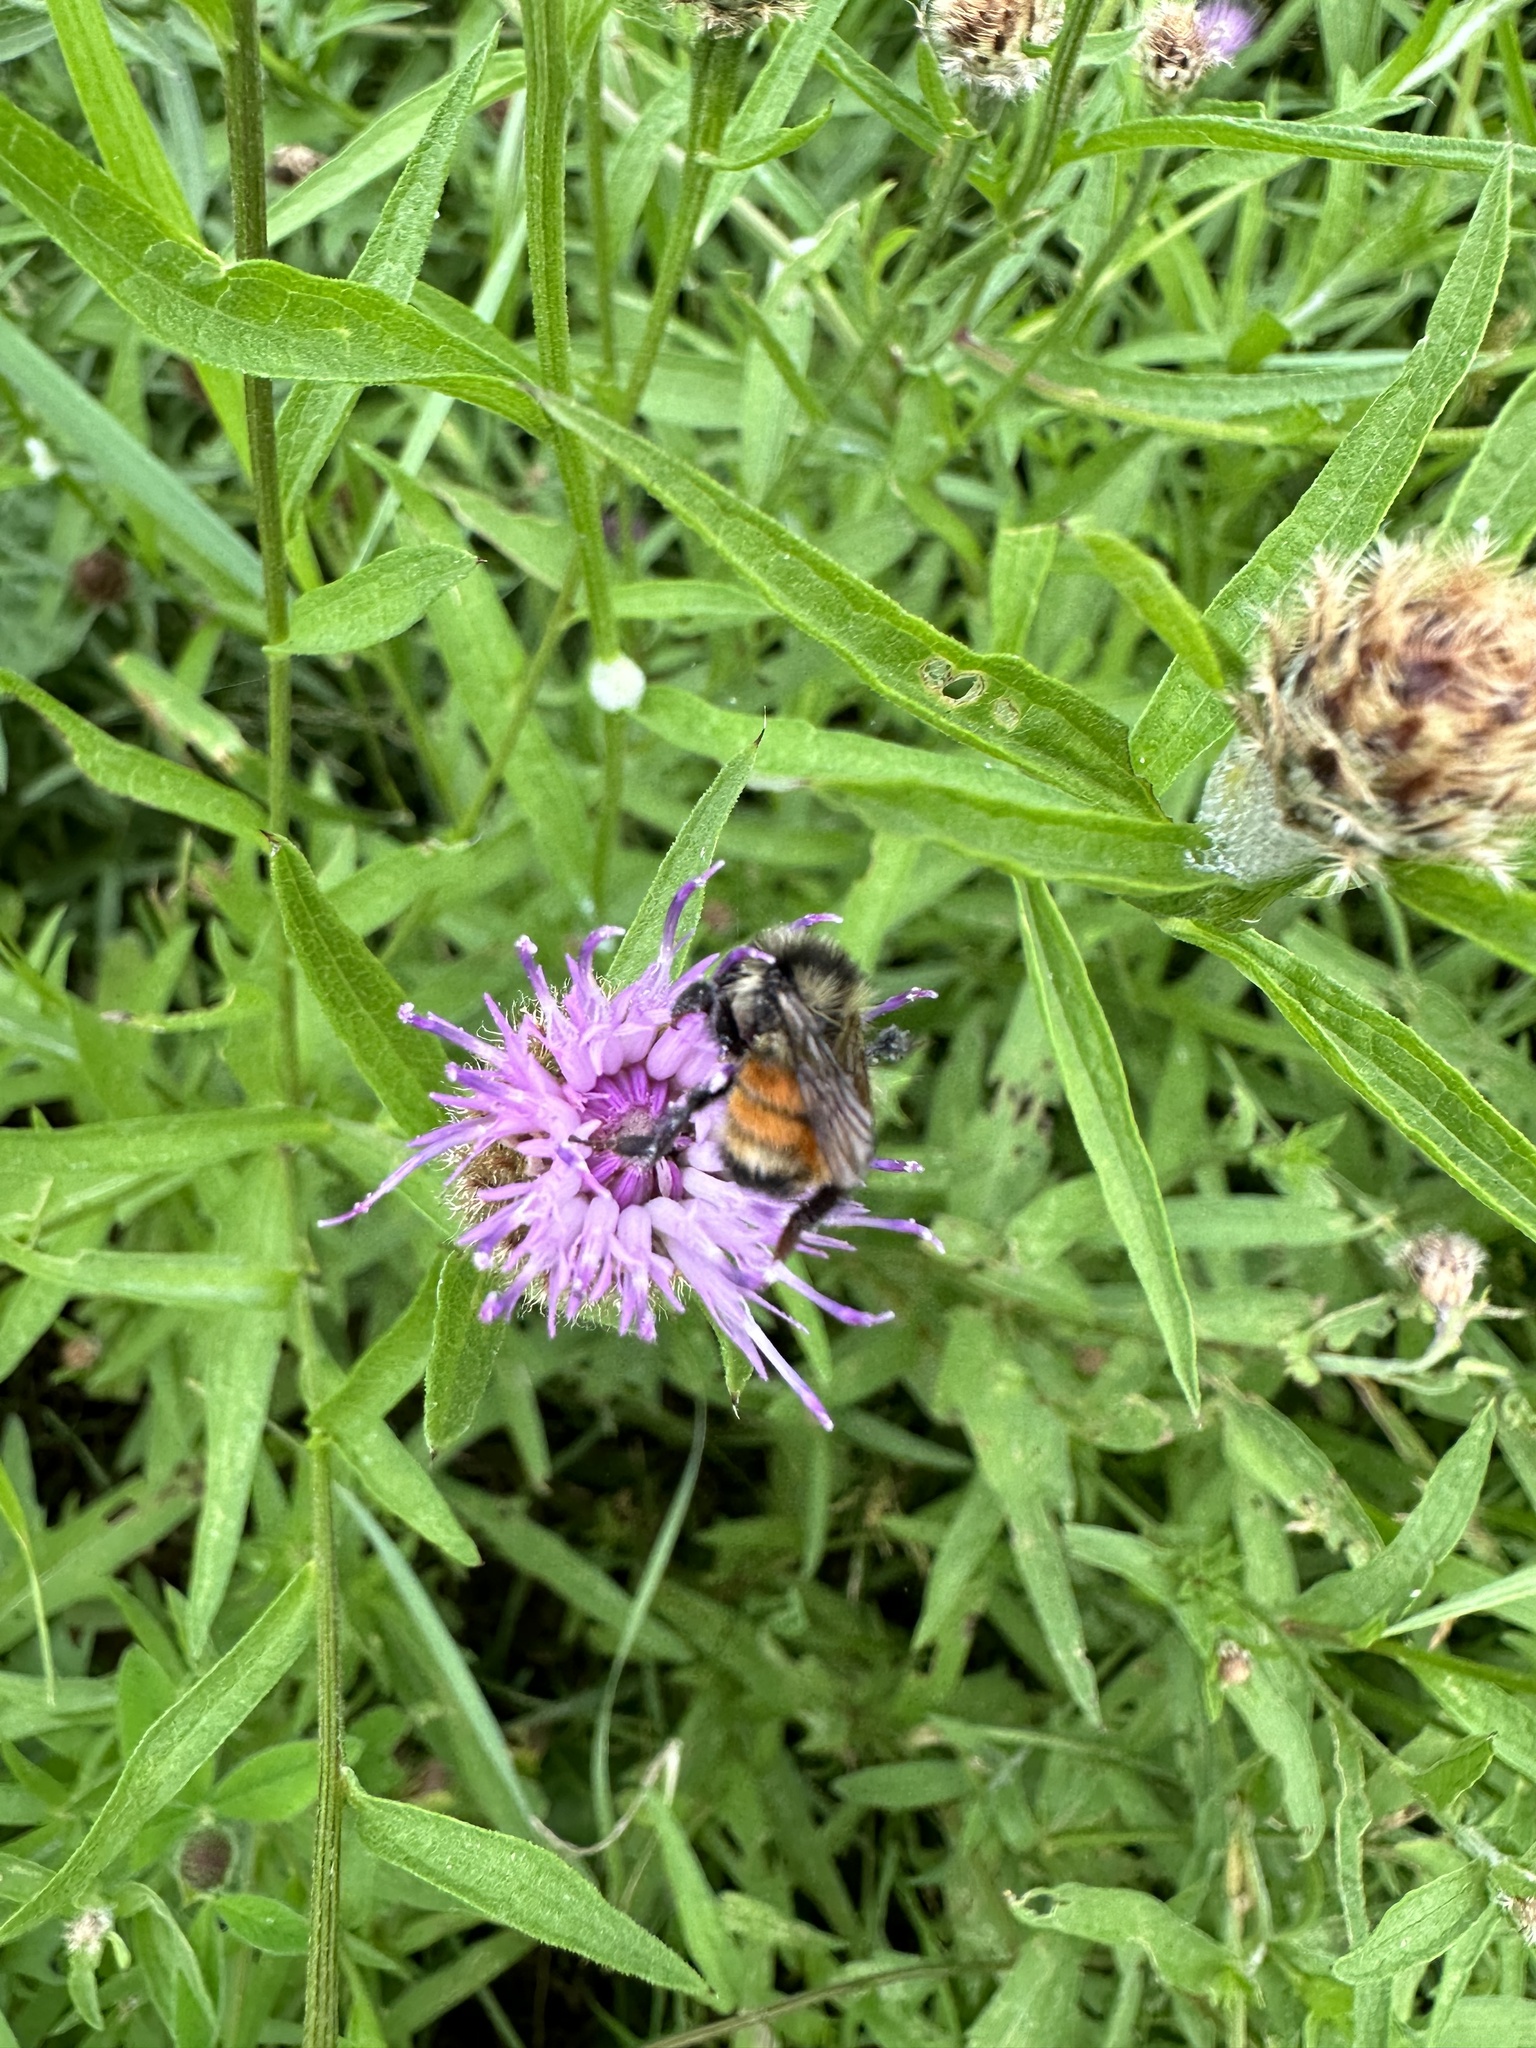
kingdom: Animalia
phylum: Arthropoda
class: Insecta
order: Hymenoptera
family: Apidae
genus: Bombus
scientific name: Bombus ternarius
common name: Tri-colored bumble bee
